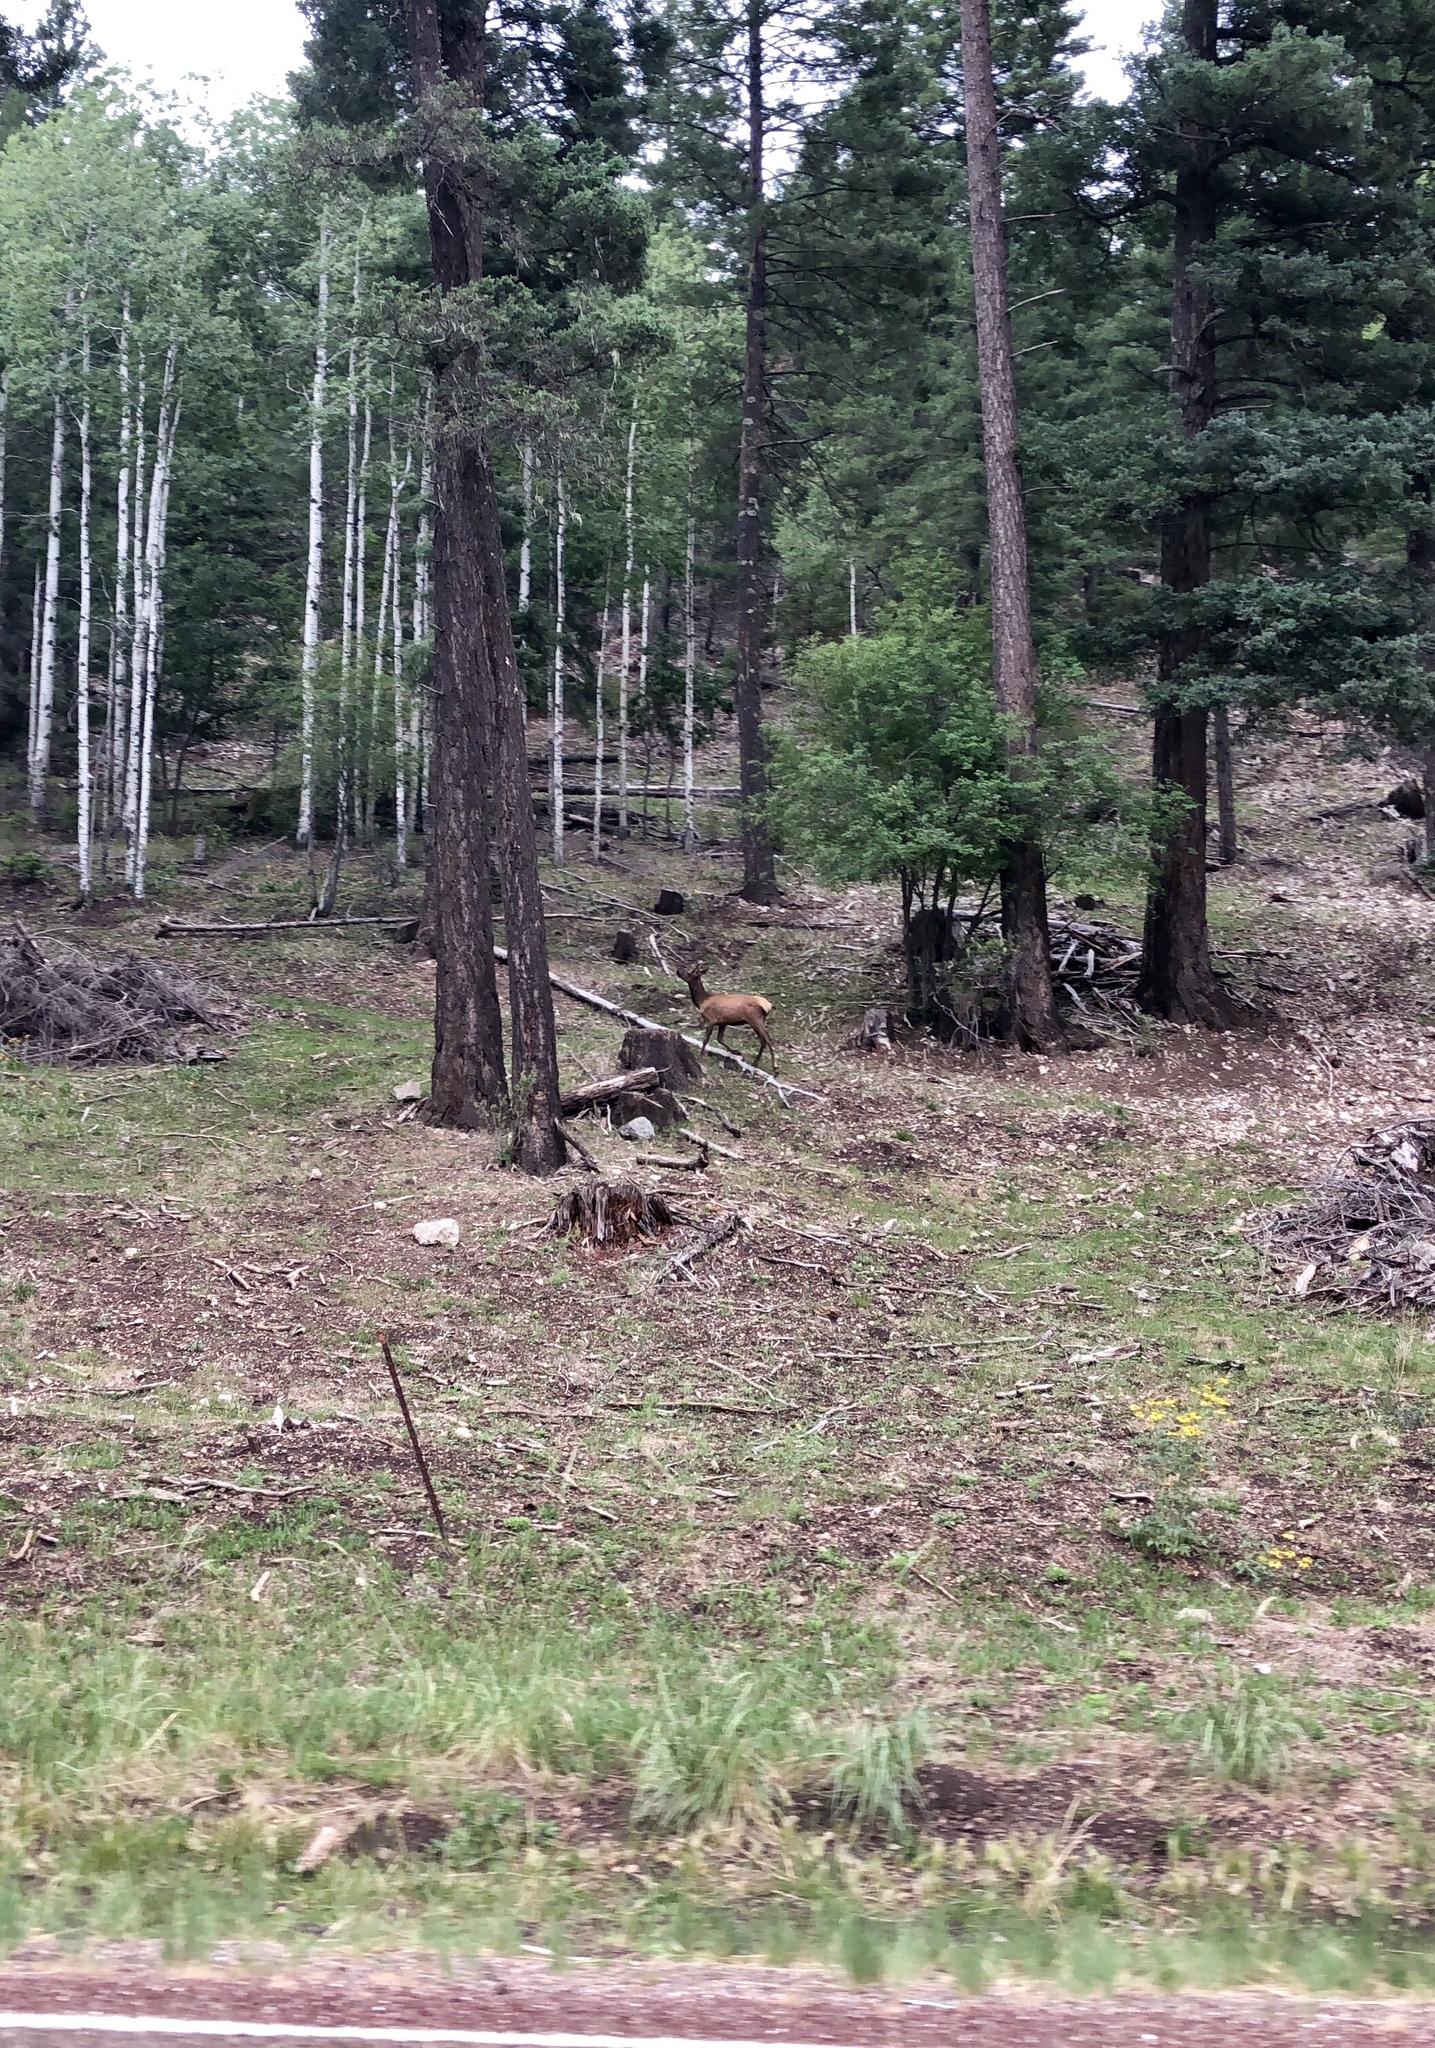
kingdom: Animalia
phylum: Chordata
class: Mammalia
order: Artiodactyla
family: Cervidae
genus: Cervus
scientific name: Cervus elaphus
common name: Red deer
